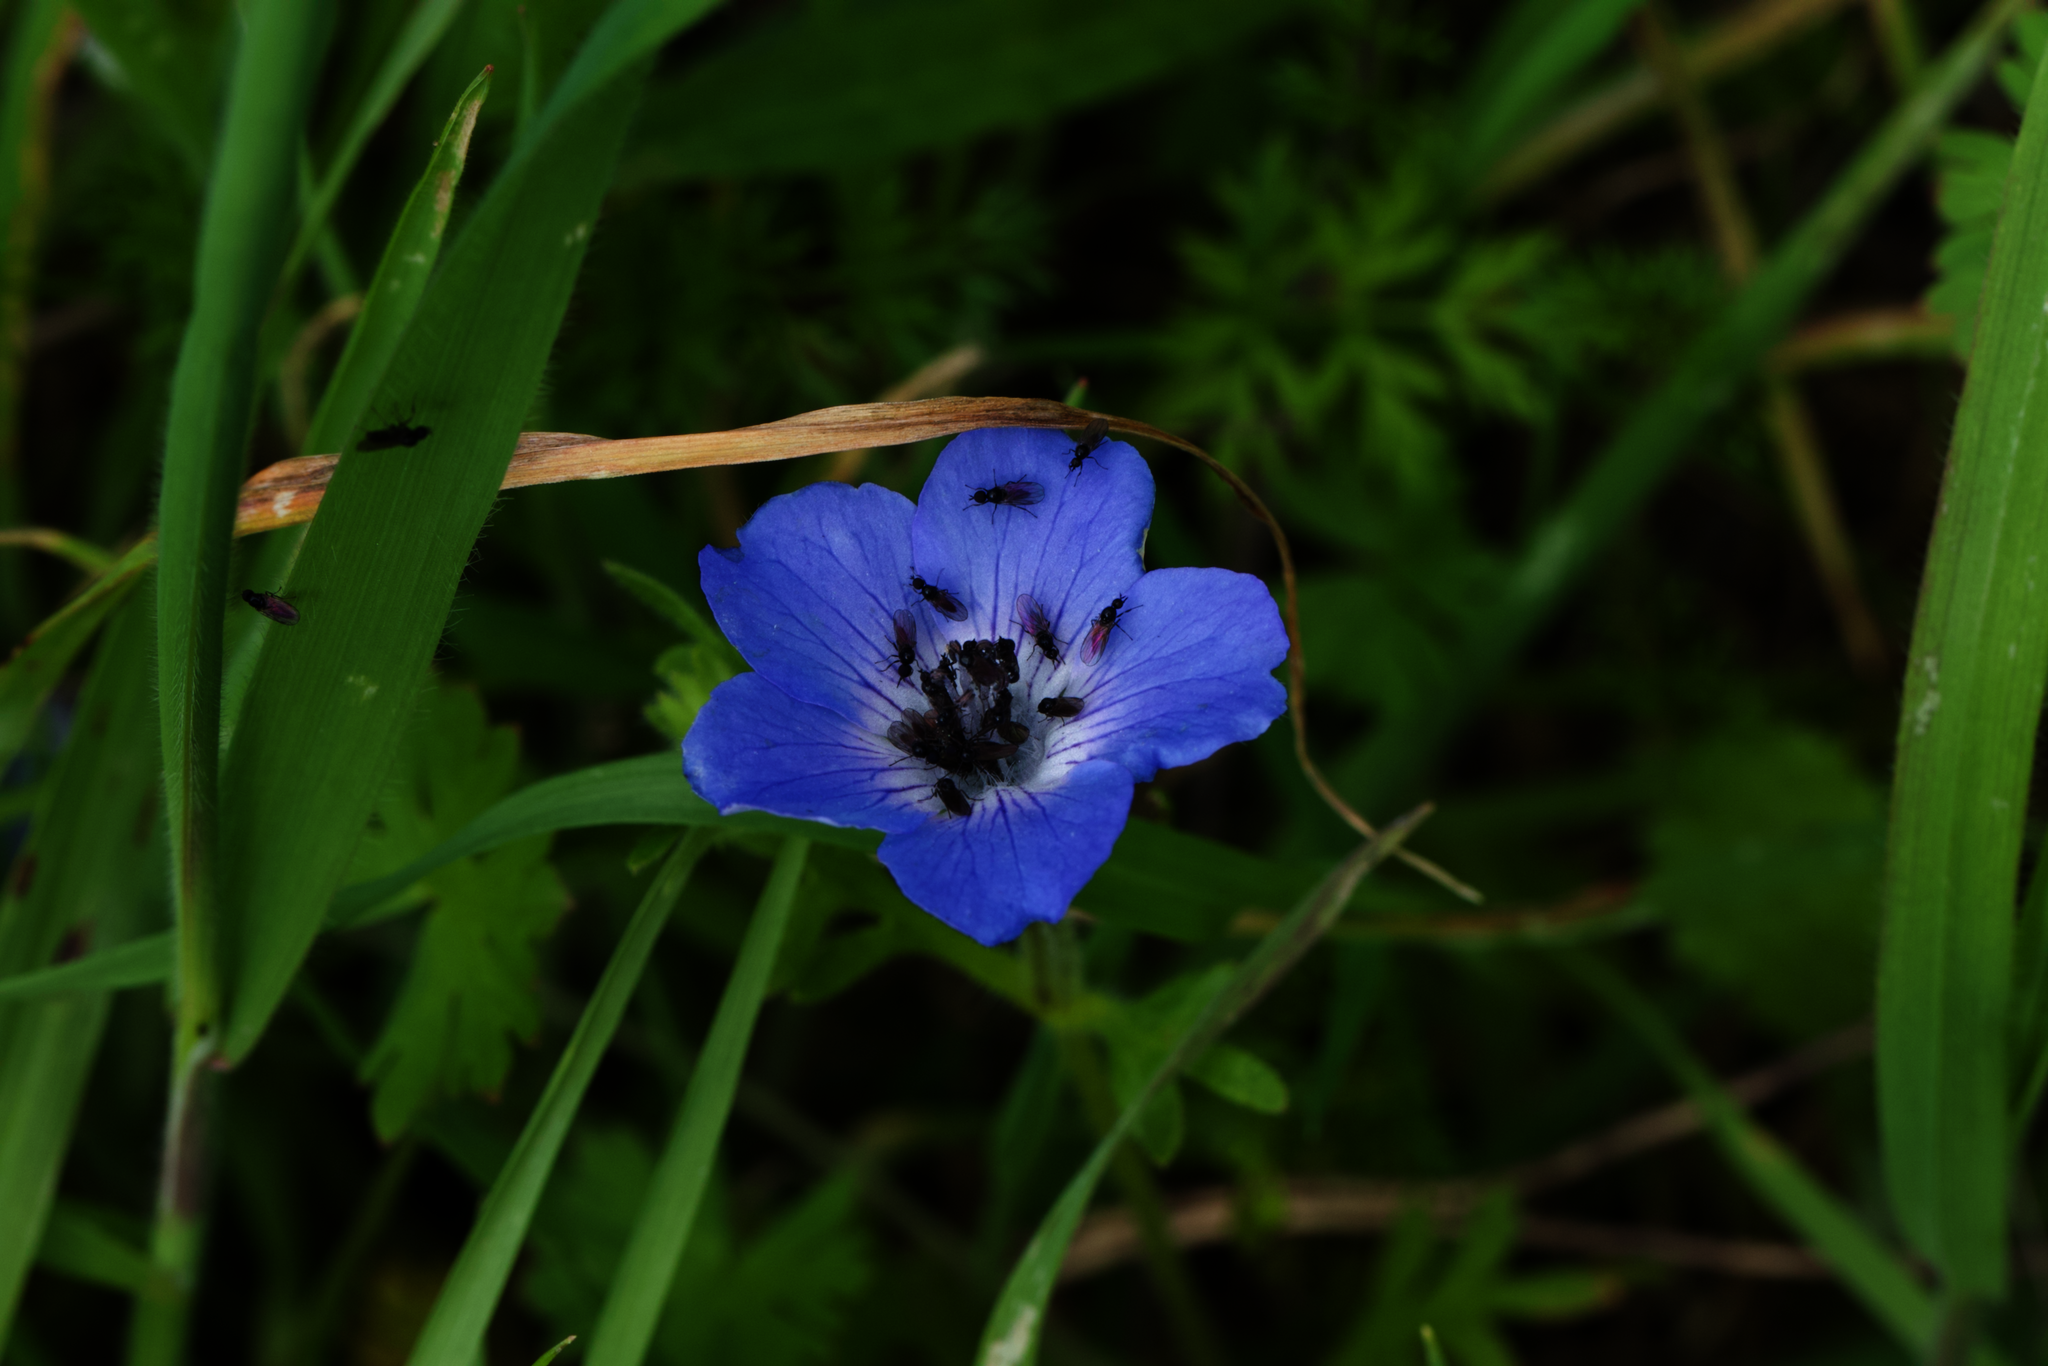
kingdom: Plantae
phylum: Tracheophyta
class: Magnoliopsida
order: Boraginales
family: Hydrophyllaceae
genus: Nemophila
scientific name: Nemophila menziesii
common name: Baby's-blue-eyes
